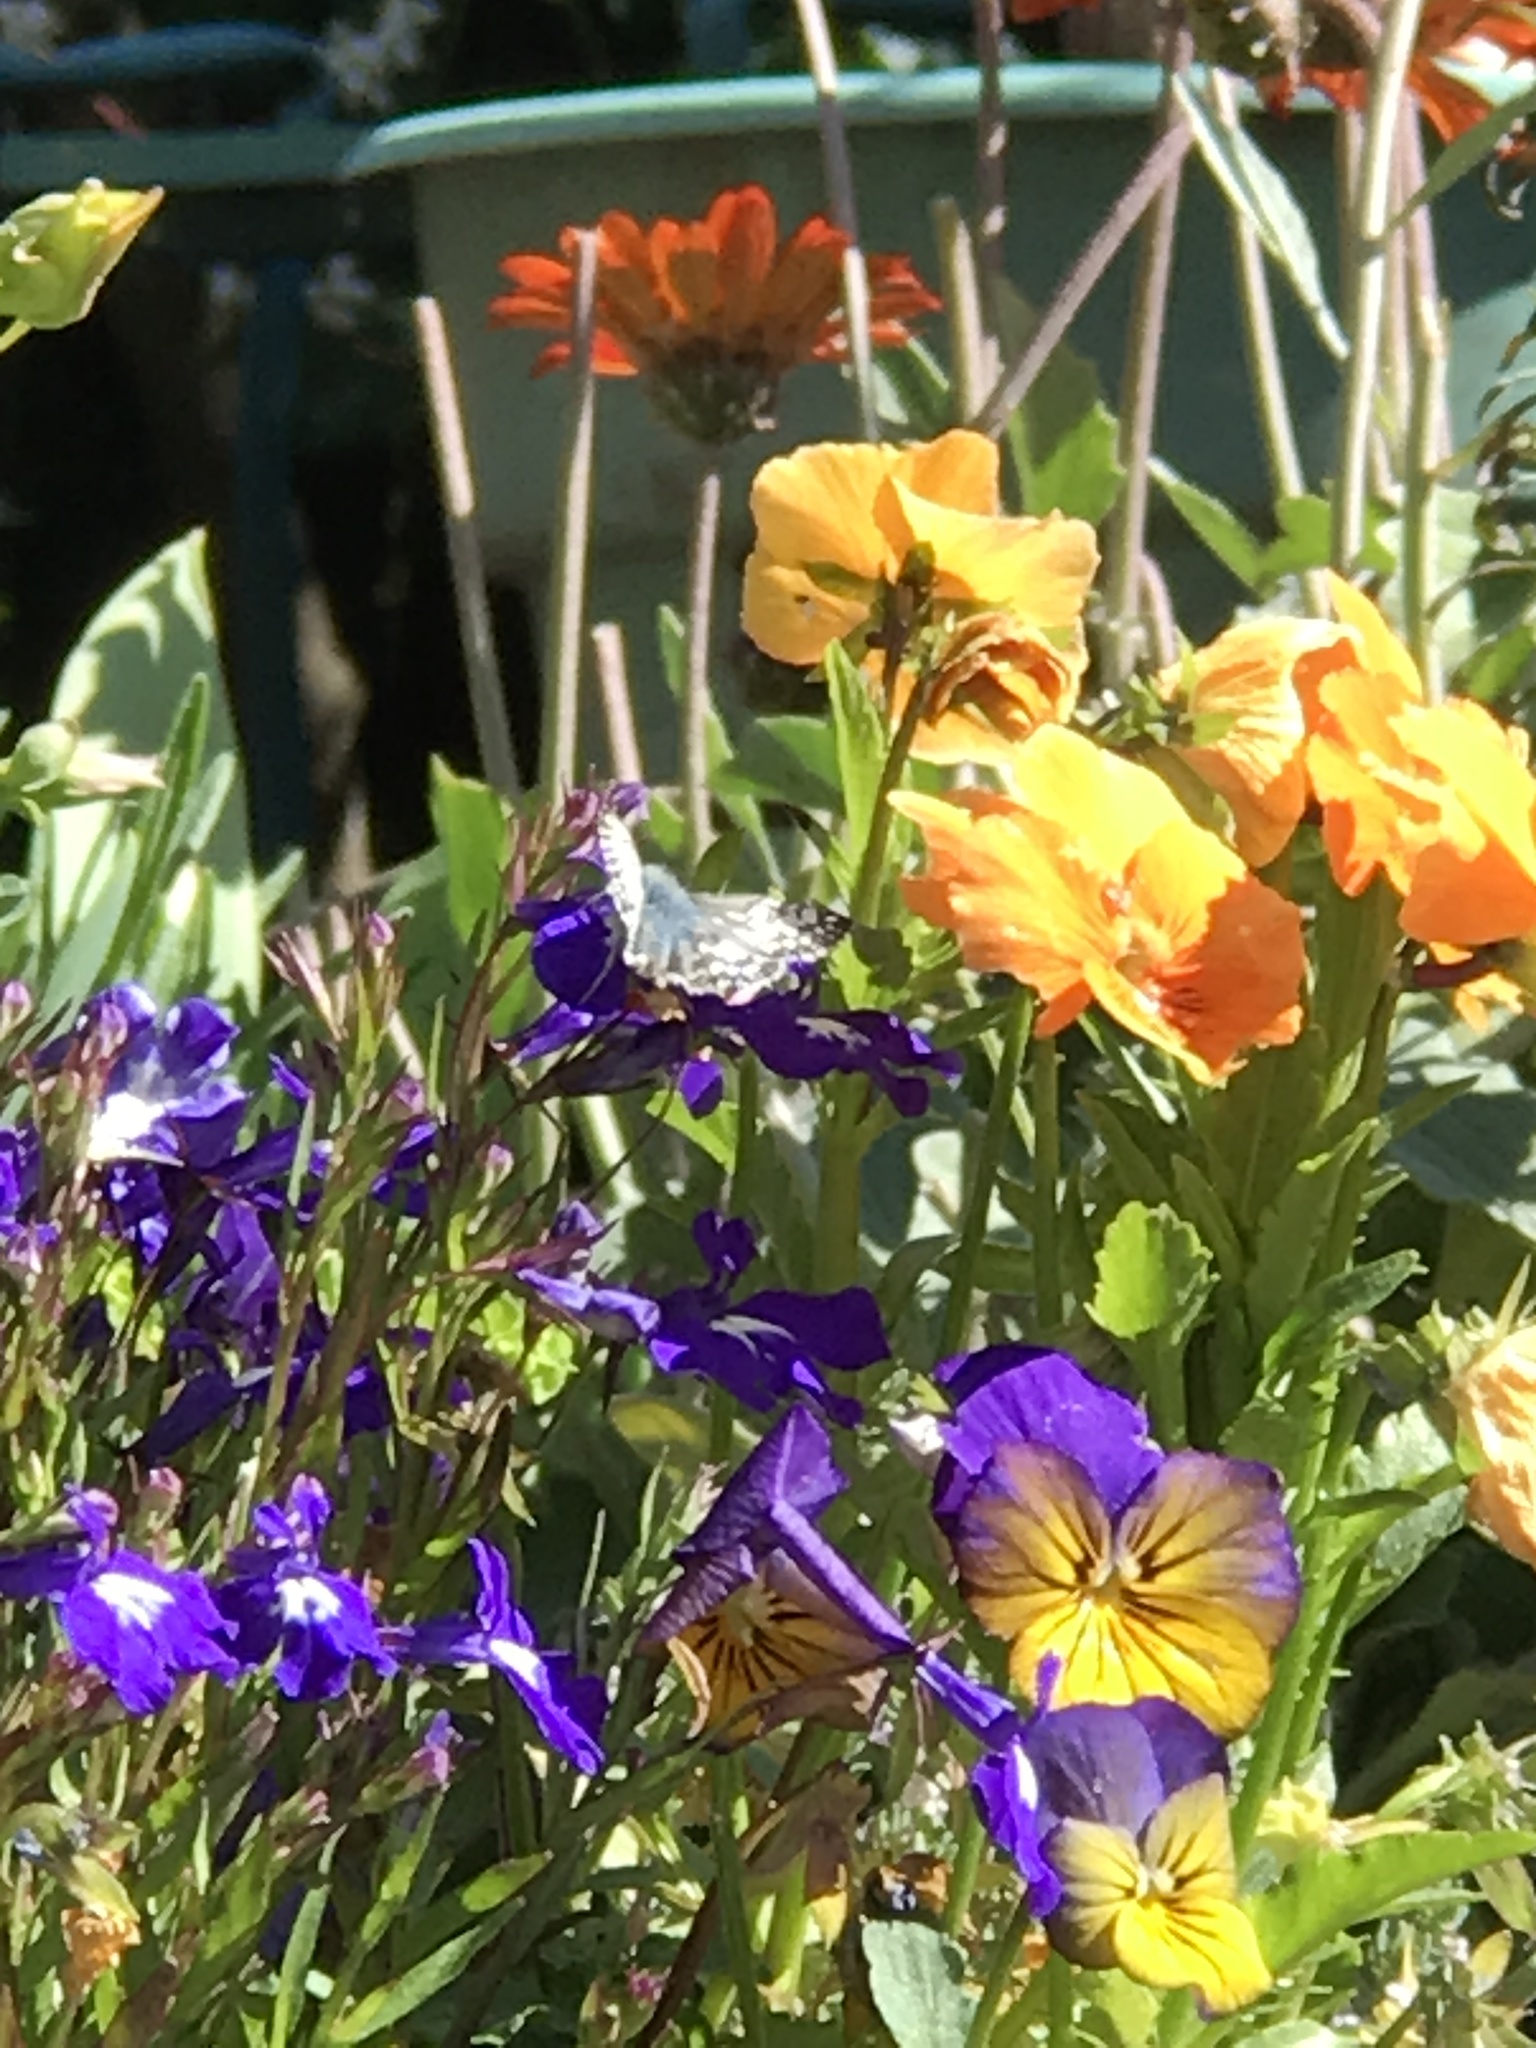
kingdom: Animalia
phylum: Arthropoda
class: Insecta
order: Lepidoptera
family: Hesperiidae
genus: Burnsius
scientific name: Burnsius communis
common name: Common checkered-skipper
